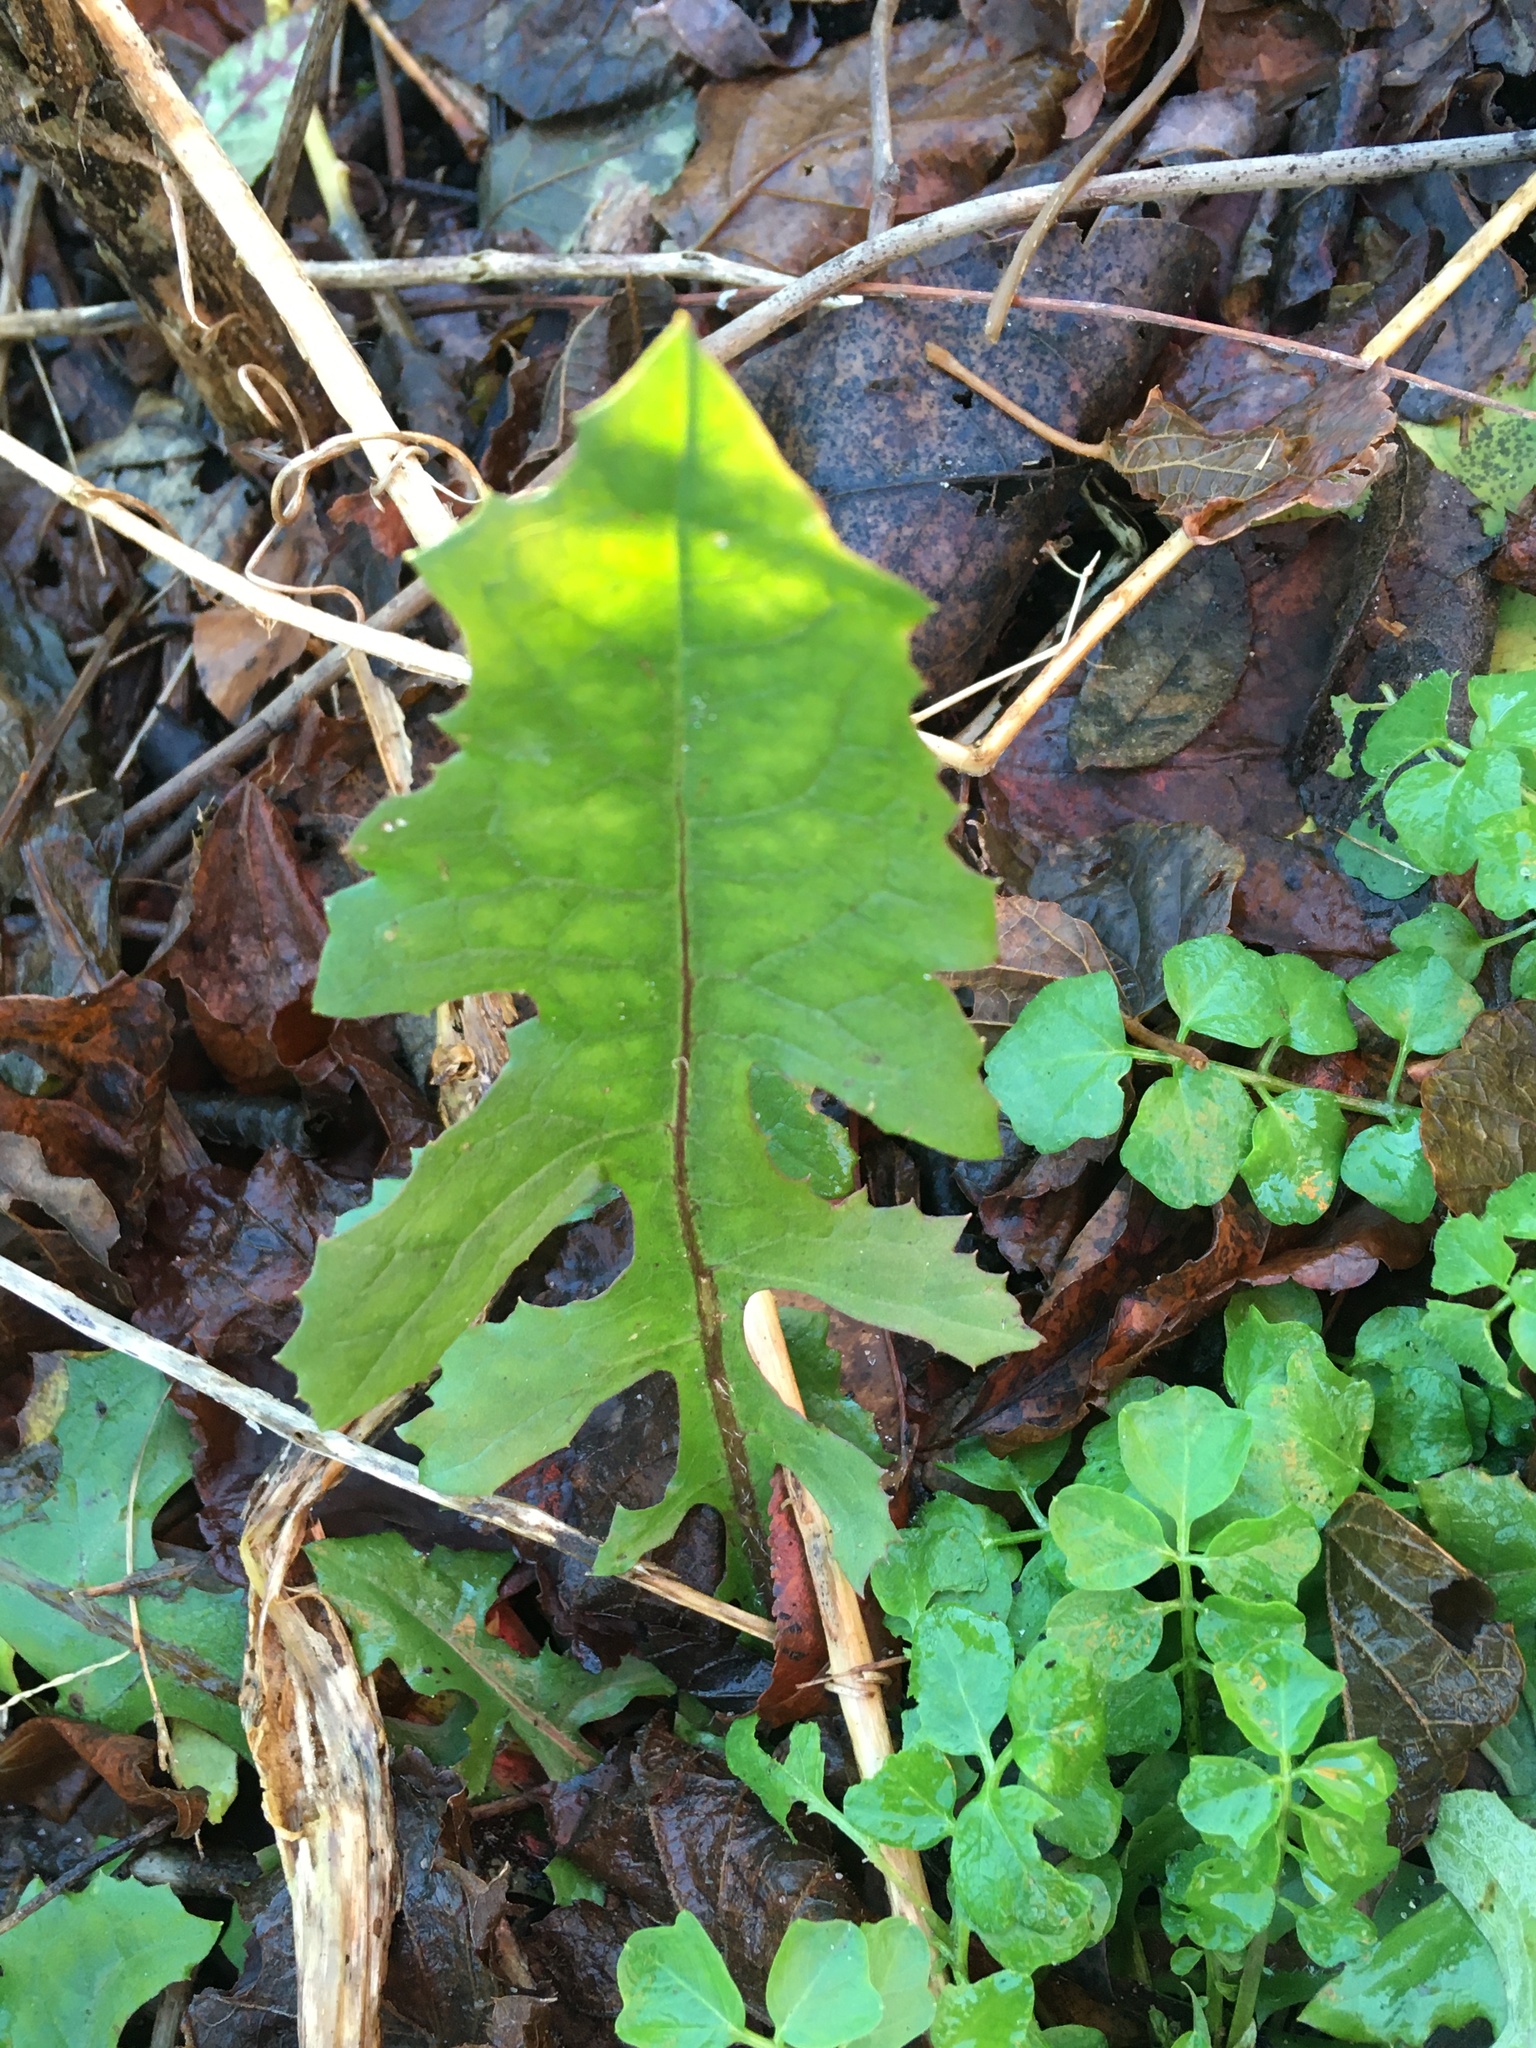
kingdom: Plantae
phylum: Tracheophyta
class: Magnoliopsida
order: Asterales
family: Asteraceae
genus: Lactuca
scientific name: Lactuca biennis
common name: Blue wood lettuce
